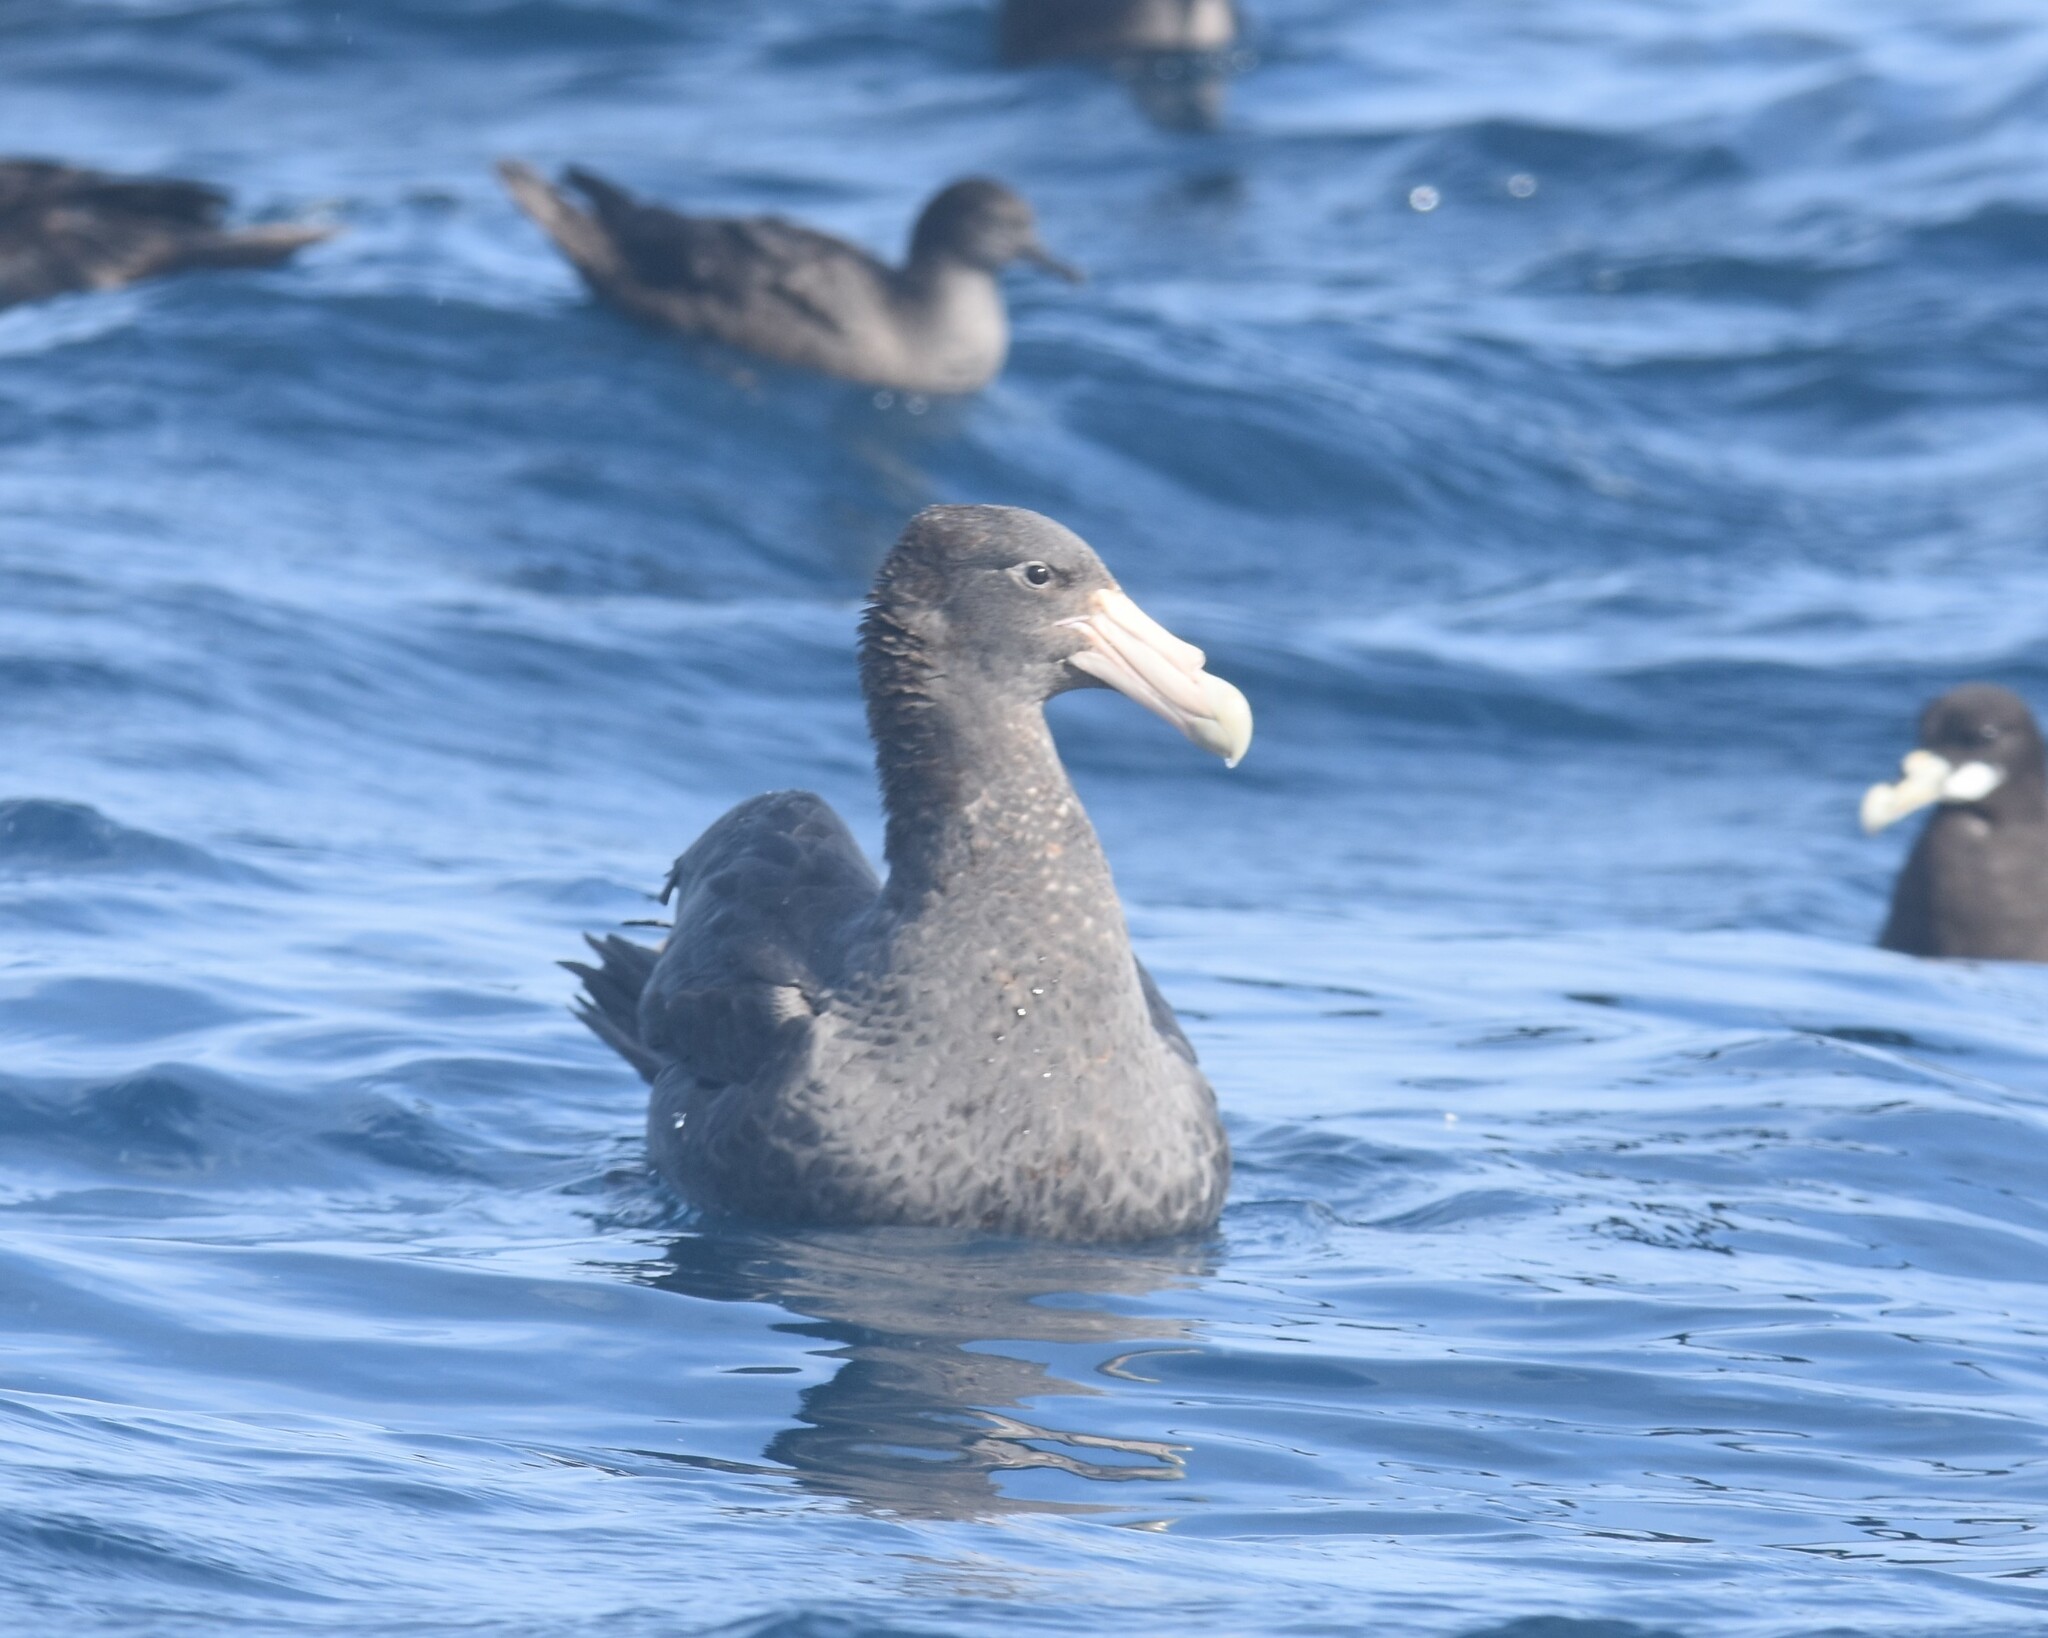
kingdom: Animalia
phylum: Chordata
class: Aves
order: Procellariiformes
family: Procellariidae
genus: Macronectes
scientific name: Macronectes giganteus
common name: Southern giant petrel
